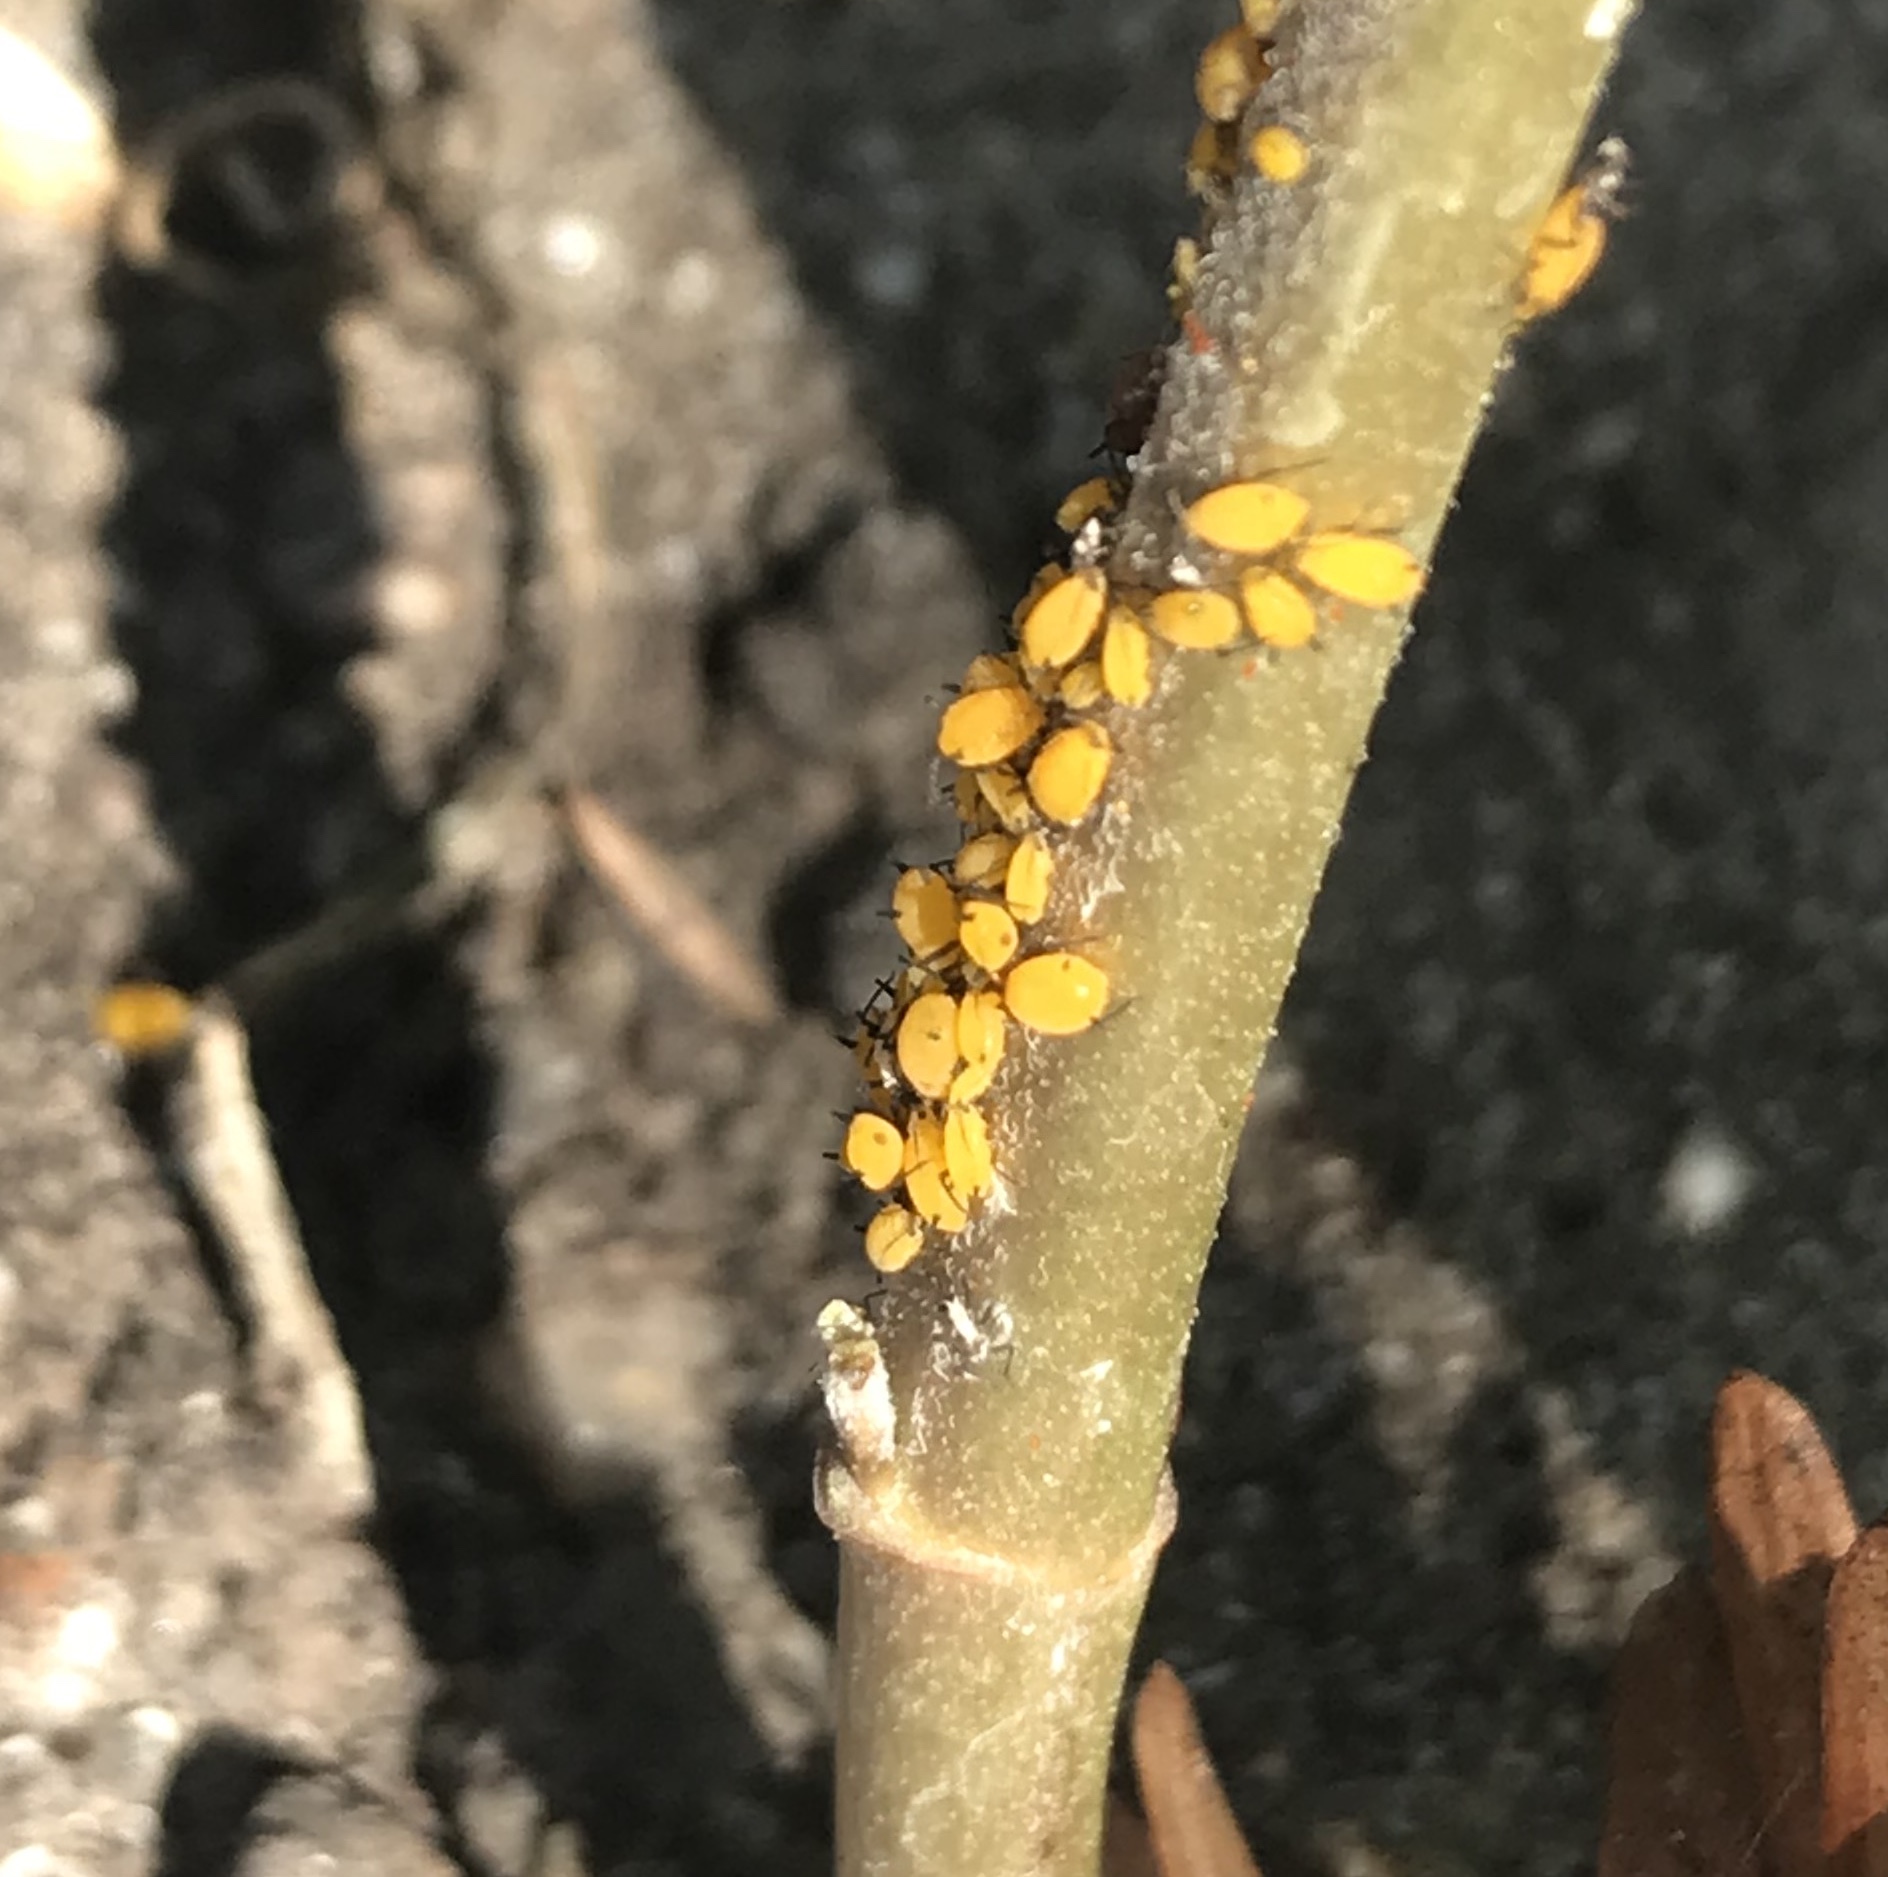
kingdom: Animalia
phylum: Arthropoda
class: Insecta
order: Hemiptera
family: Aphididae
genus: Aphis
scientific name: Aphis nerii
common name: Oleander aphid
